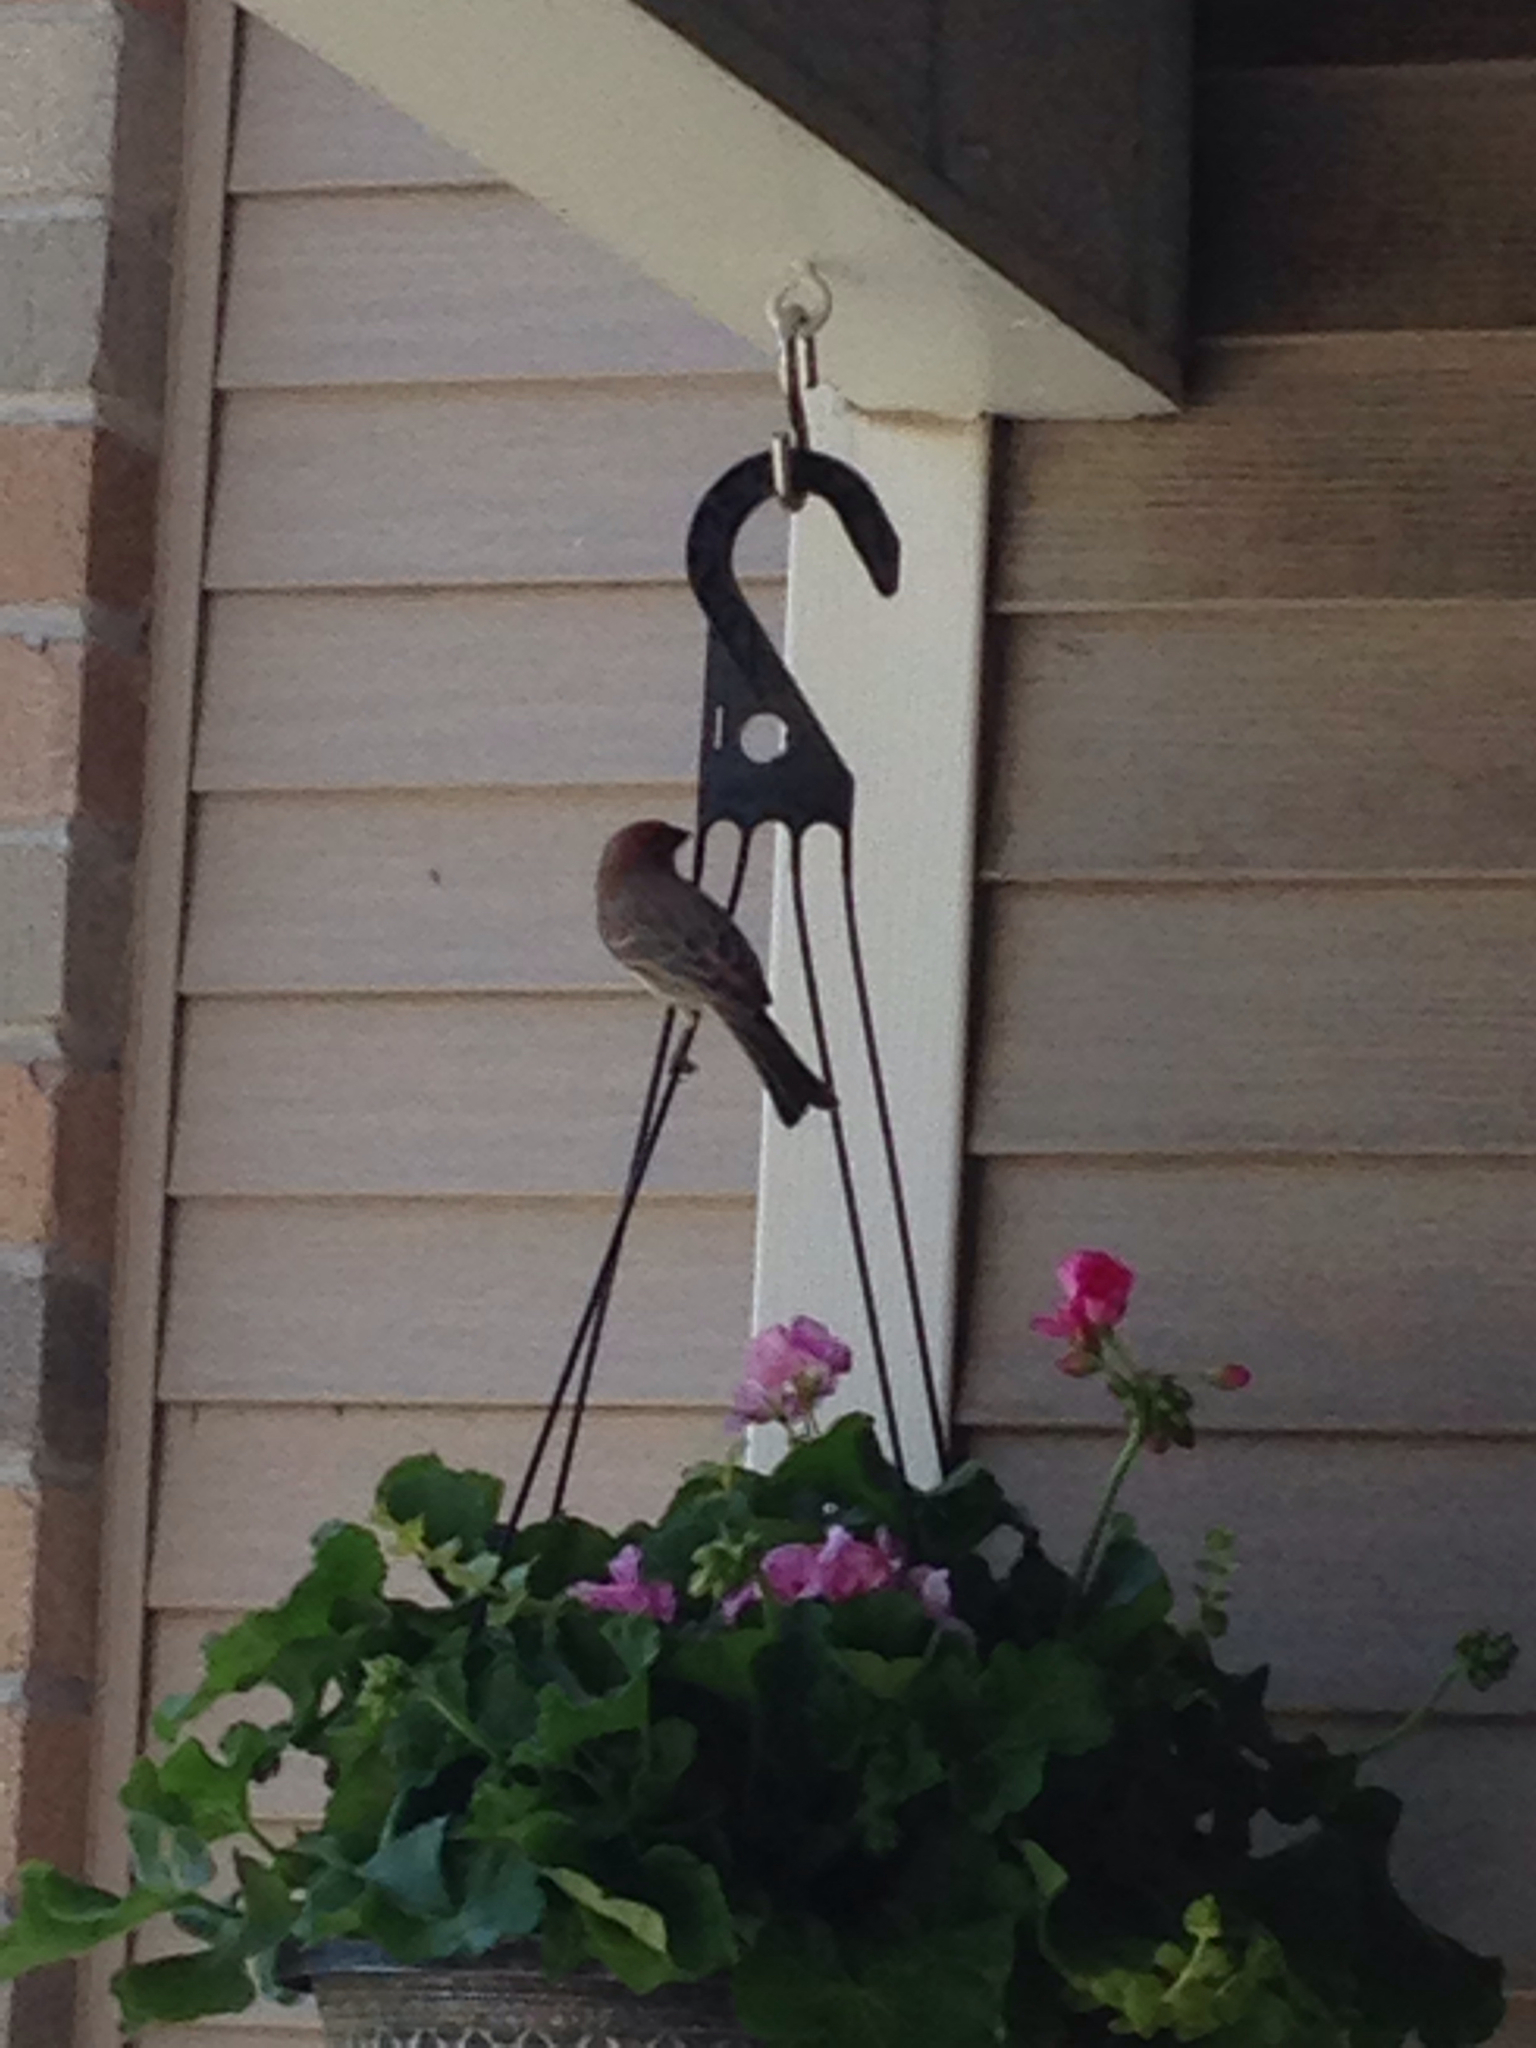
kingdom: Animalia
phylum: Chordata
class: Aves
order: Passeriformes
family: Fringillidae
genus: Haemorhous
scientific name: Haemorhous mexicanus
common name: House finch
